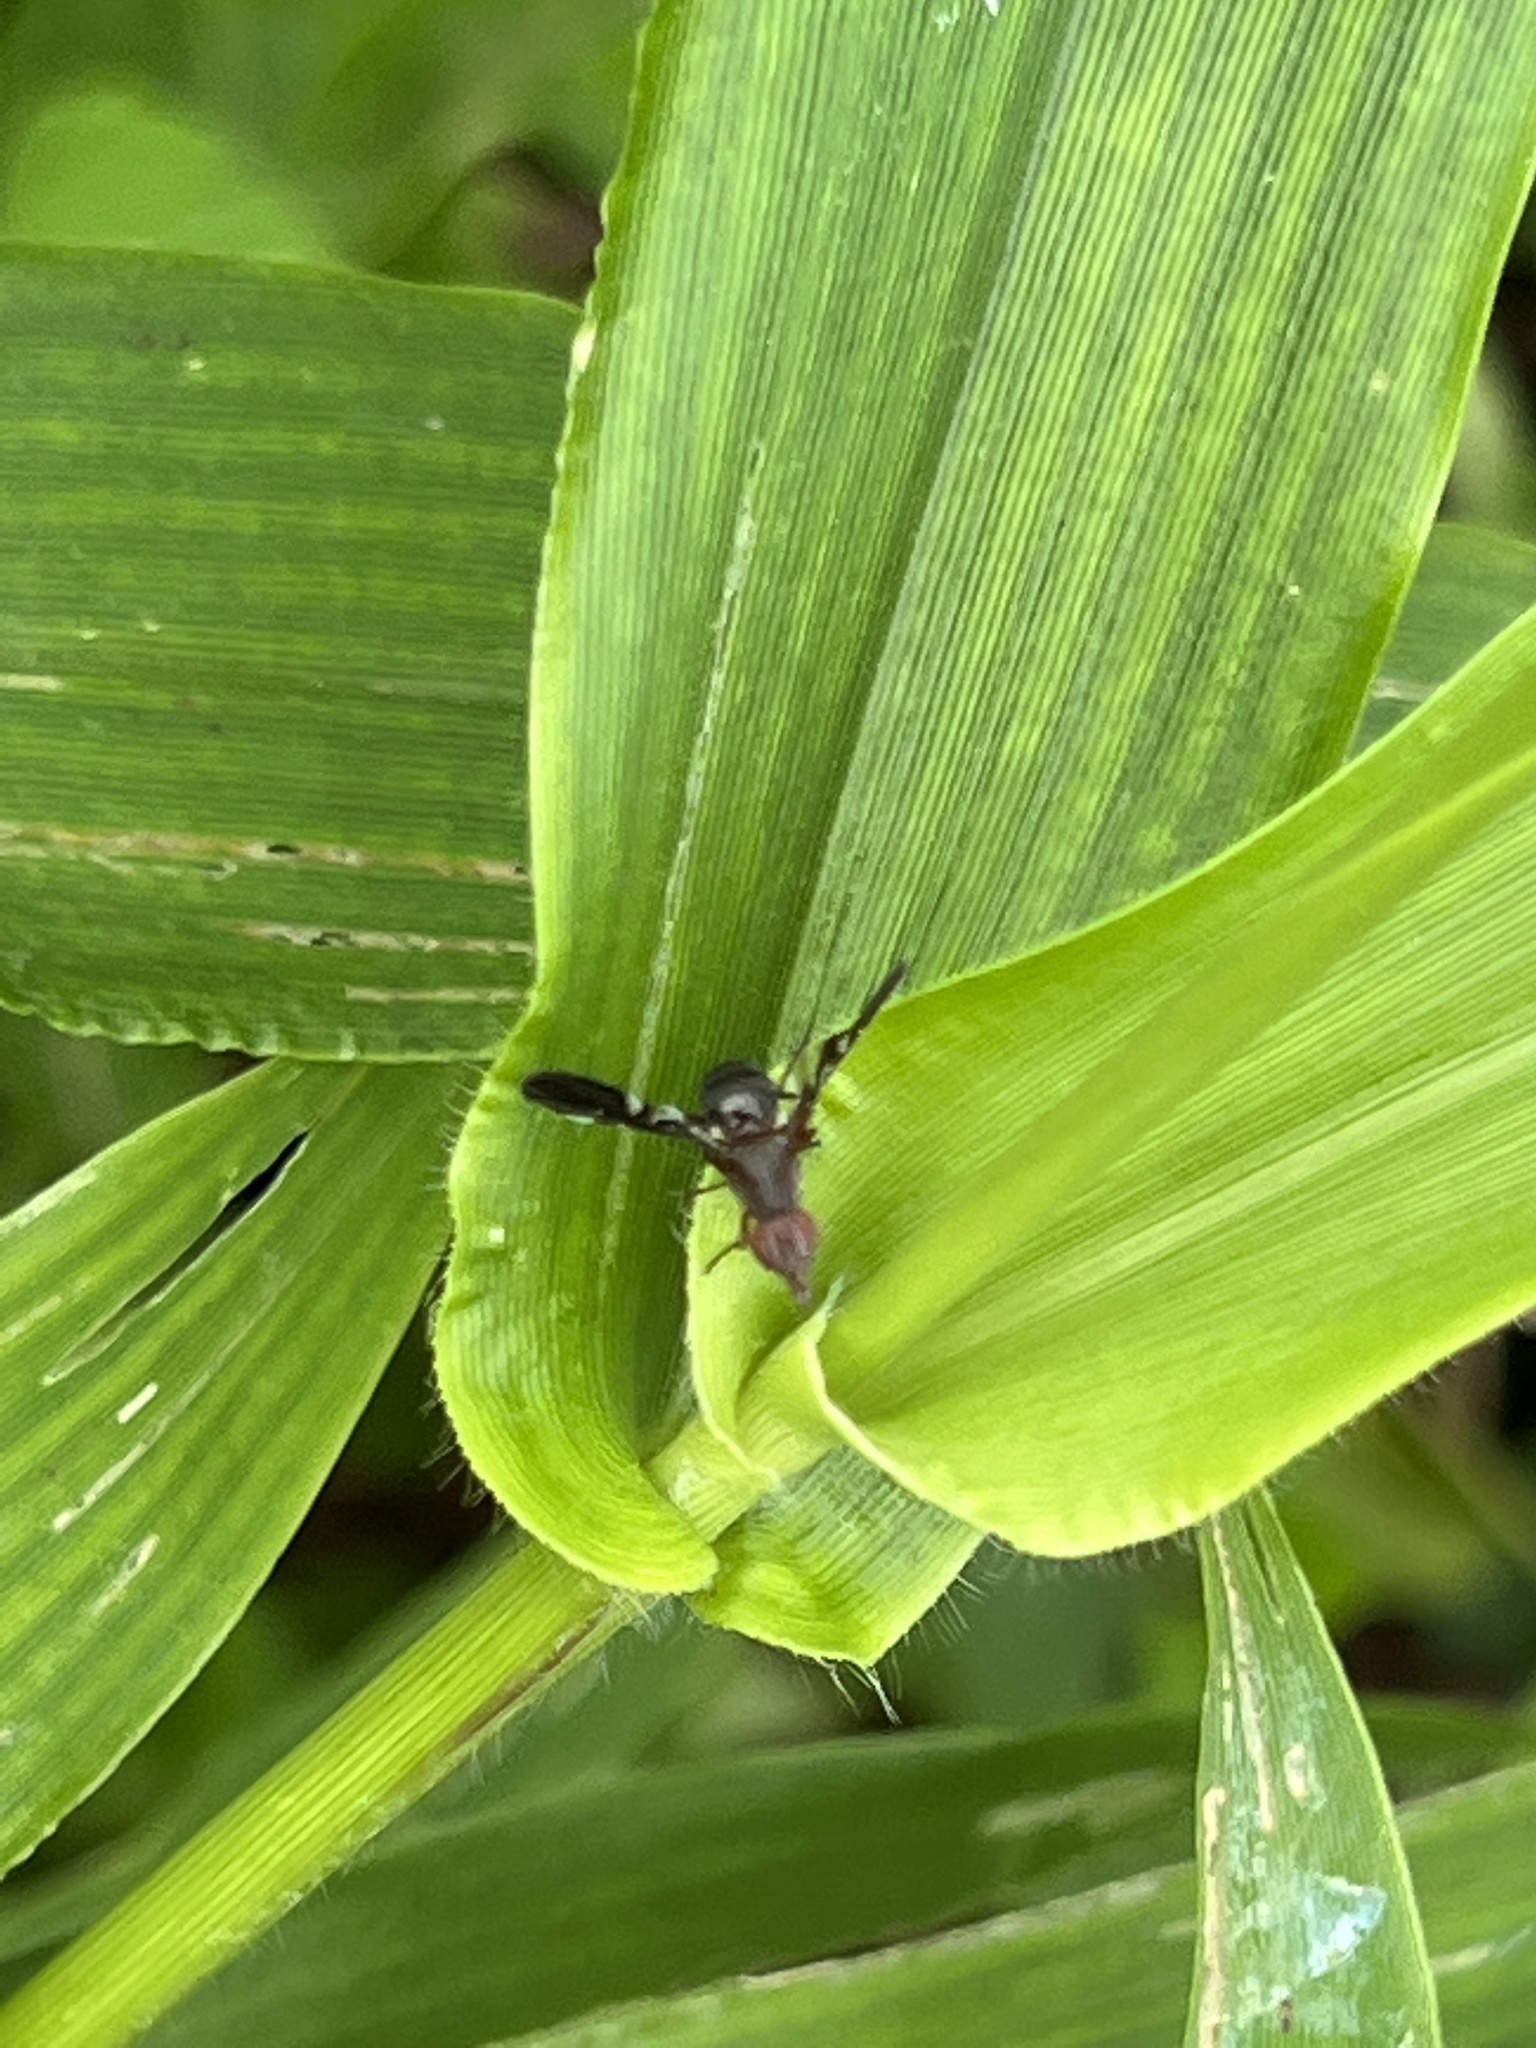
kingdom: Animalia
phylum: Arthropoda
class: Insecta
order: Diptera
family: Ulidiidae
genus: Delphinia
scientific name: Delphinia picta
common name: Common picture-winged fly
